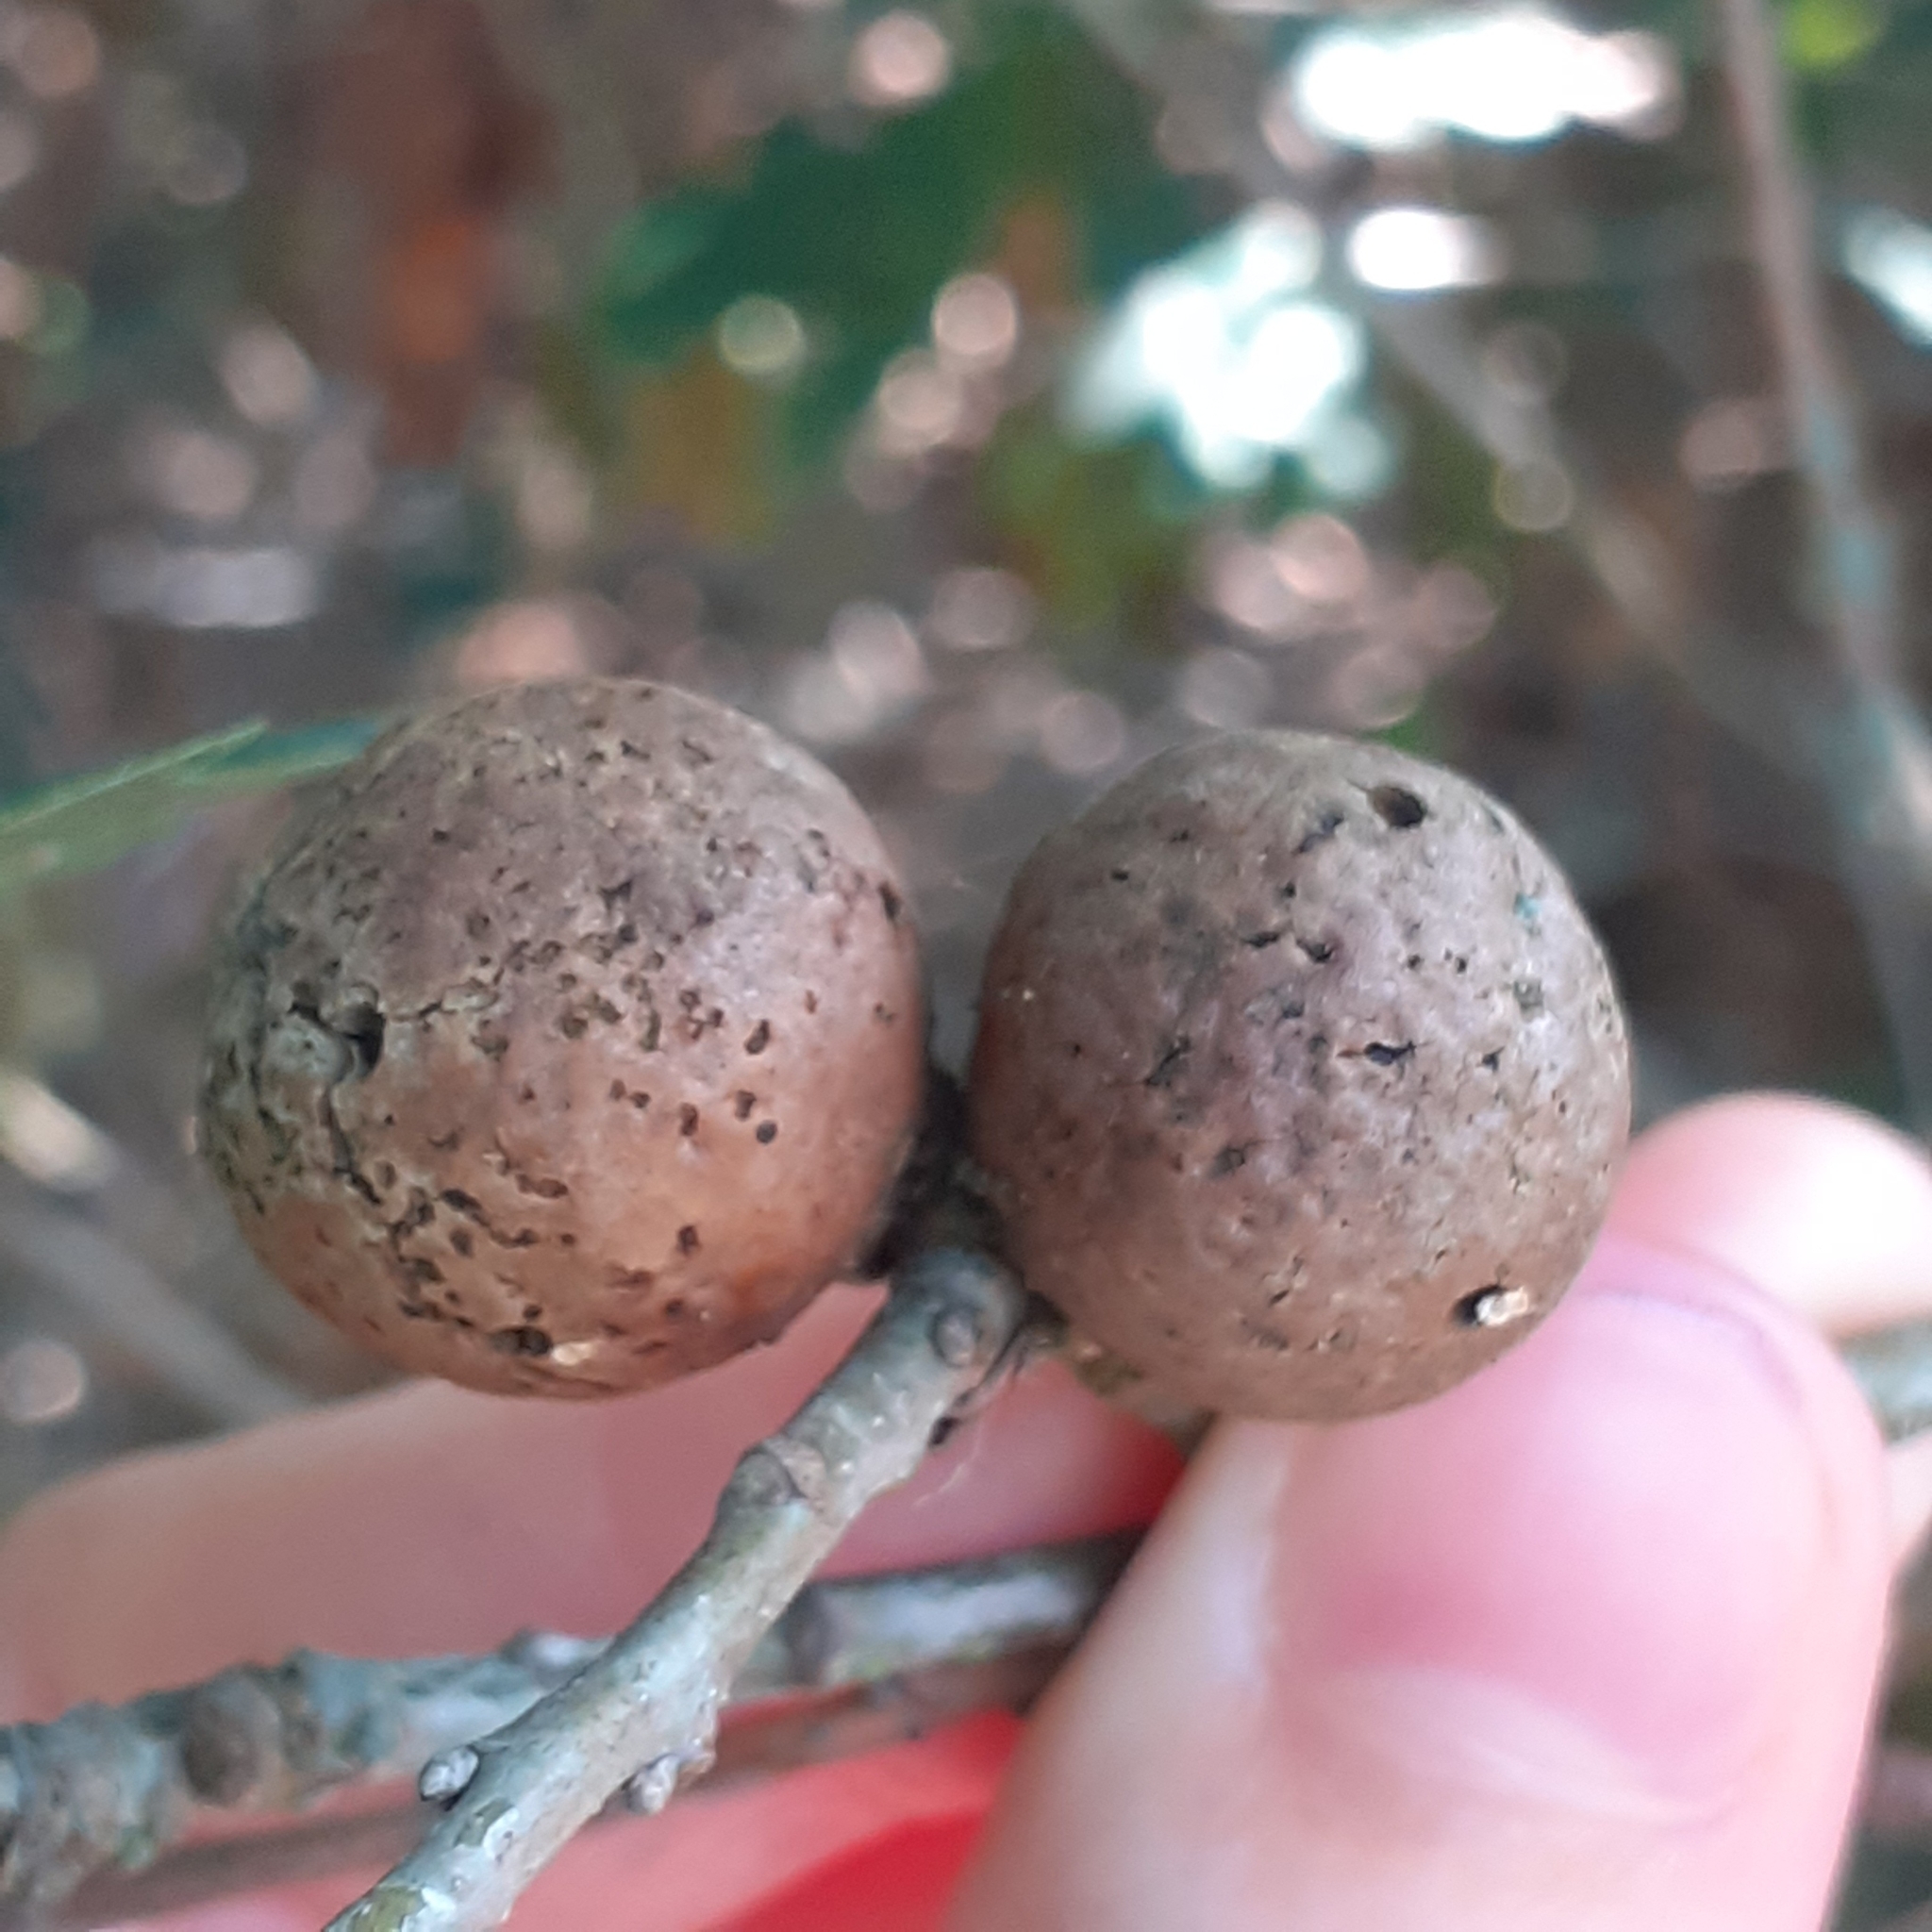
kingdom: Animalia
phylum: Arthropoda
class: Insecta
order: Hymenoptera
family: Cynipidae
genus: Andricus
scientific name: Andricus kollari
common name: Marble gall
